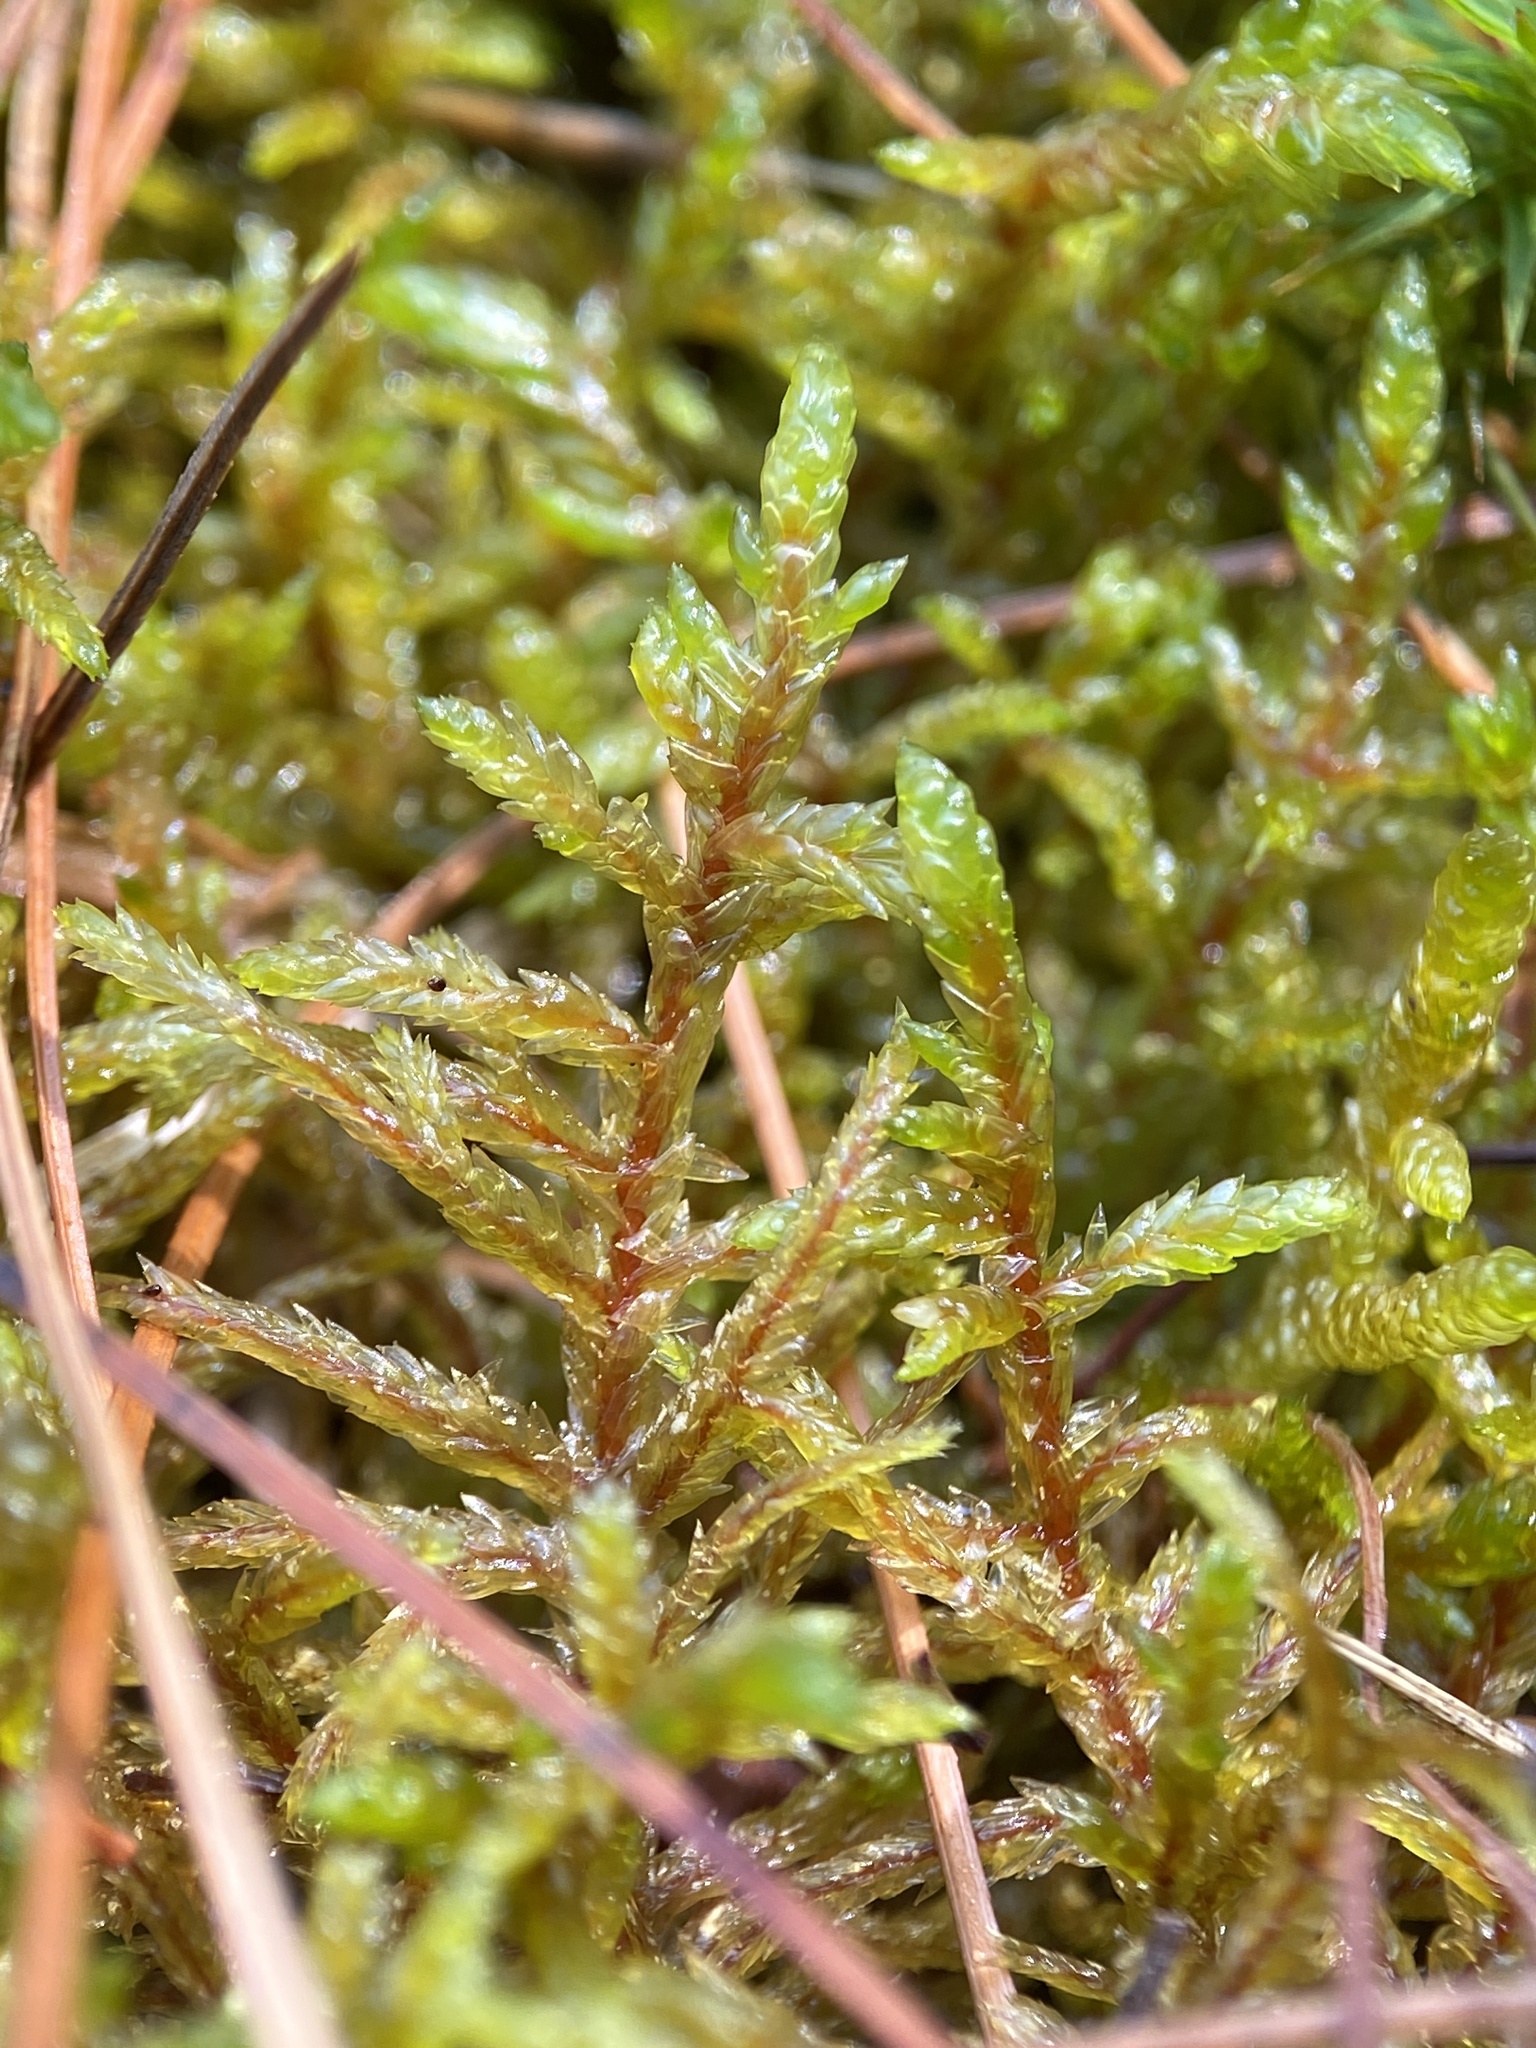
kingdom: Plantae
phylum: Bryophyta
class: Bryopsida
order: Hypnales
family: Hylocomiaceae
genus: Pleurozium
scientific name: Pleurozium schreberi
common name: Red-stemmed feather moss
